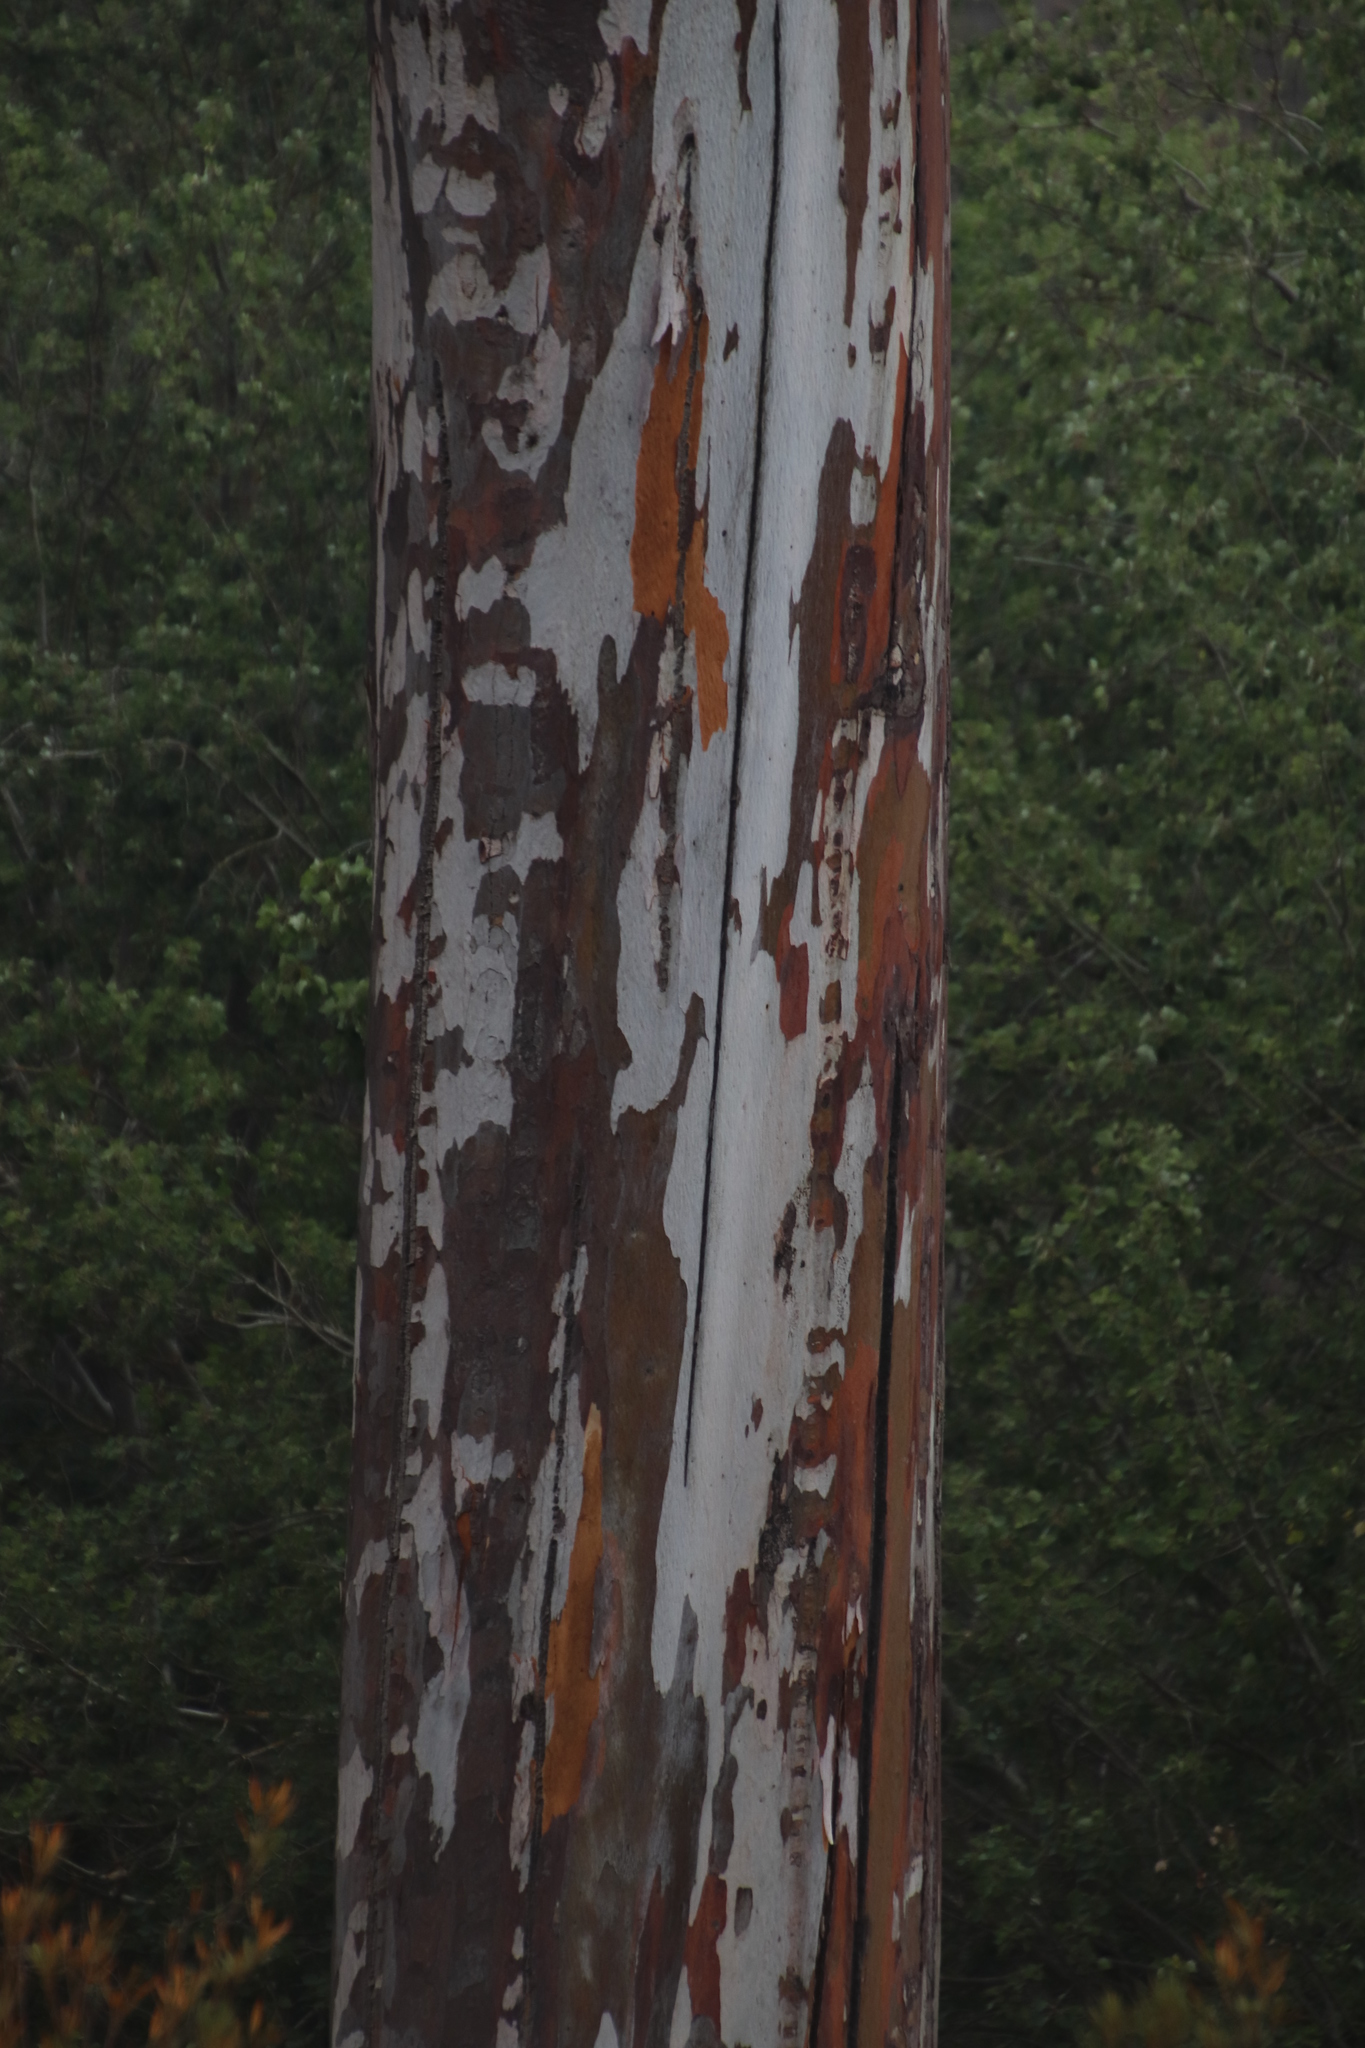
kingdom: Plantae
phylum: Tracheophyta
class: Magnoliopsida
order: Myrtales
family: Myrtaceae
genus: Eucalyptus
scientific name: Eucalyptus cladocalyx
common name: Sugargum
